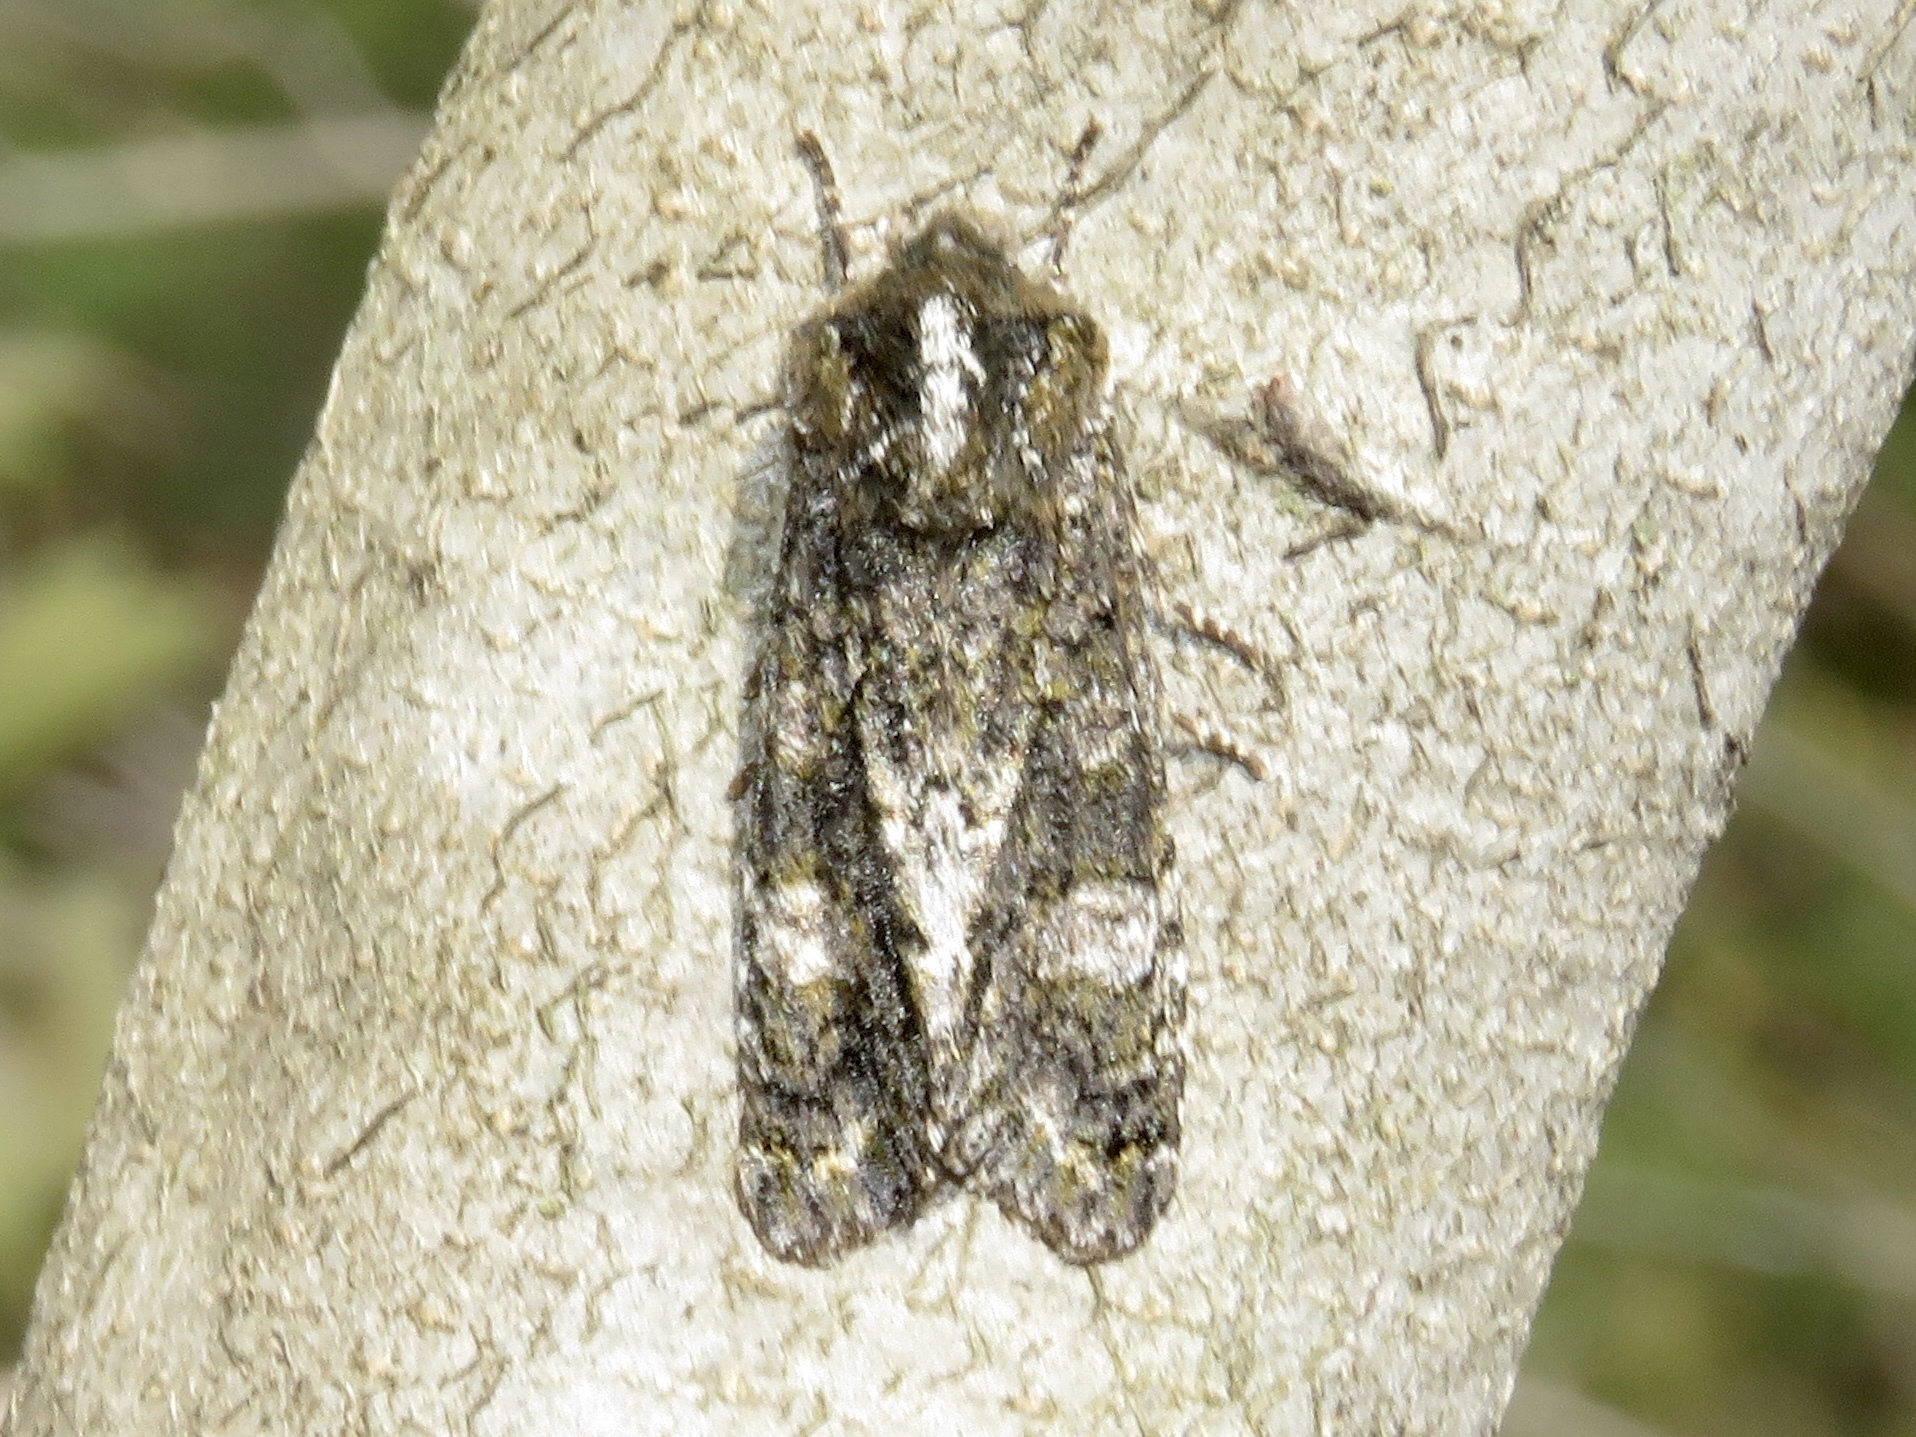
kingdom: Animalia
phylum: Arthropoda
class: Insecta
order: Lepidoptera
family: Noctuidae
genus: Psaphida
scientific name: Psaphida grotei
